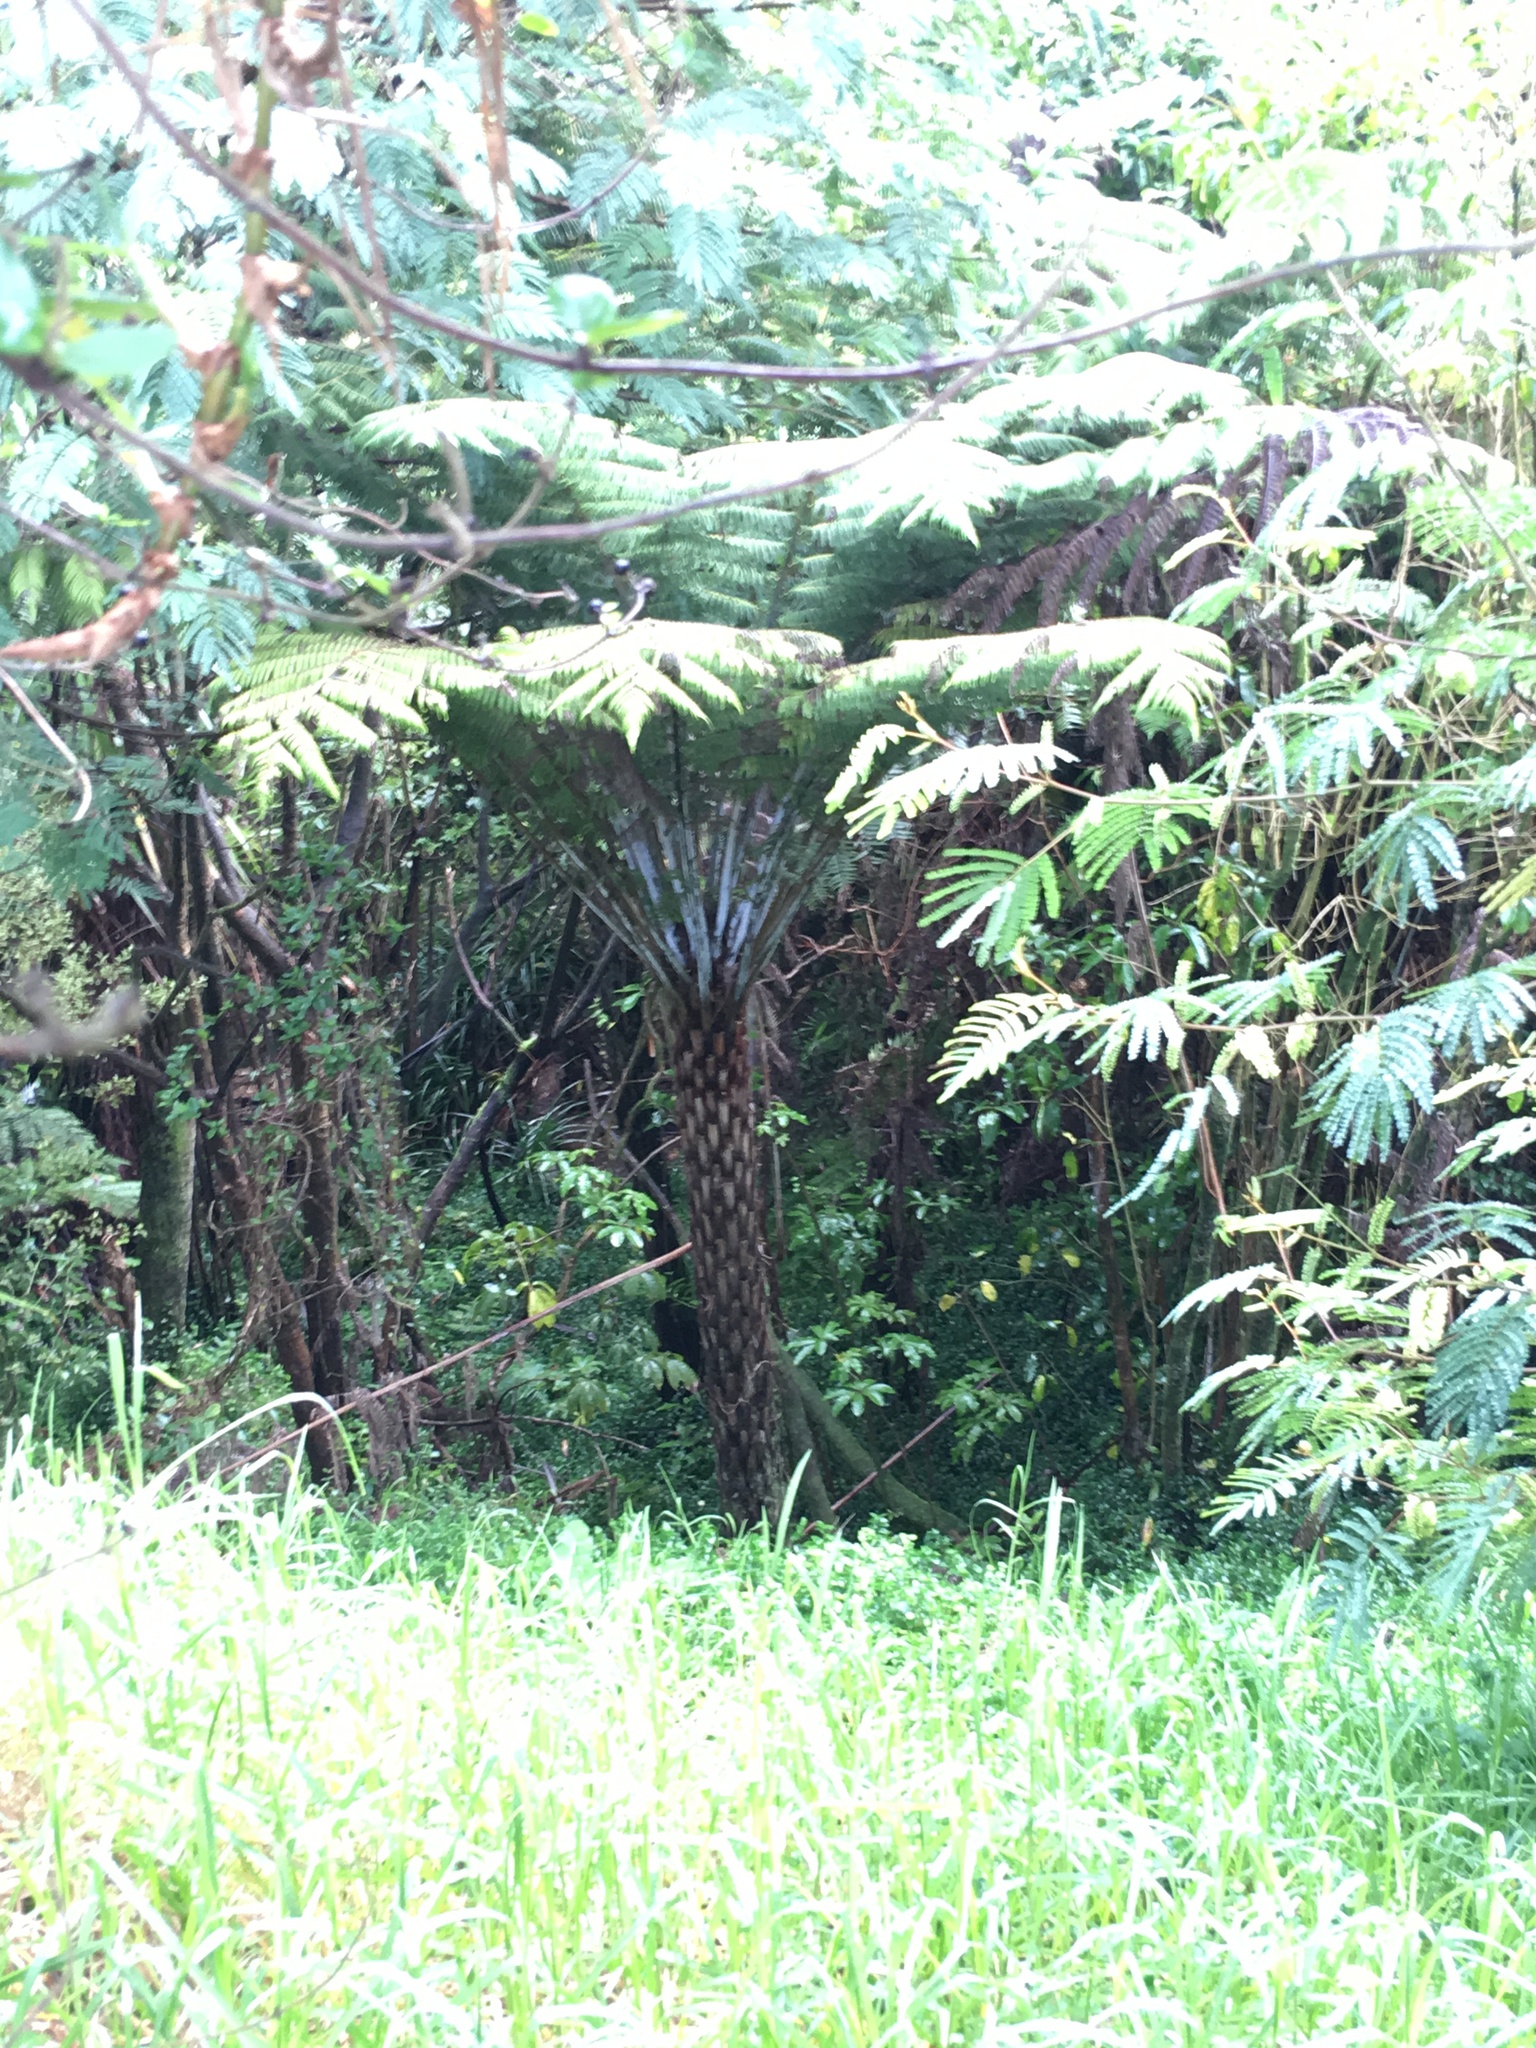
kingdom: Plantae
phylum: Tracheophyta
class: Polypodiopsida
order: Cyatheales
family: Cyatheaceae
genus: Alsophila
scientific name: Alsophila dealbata
